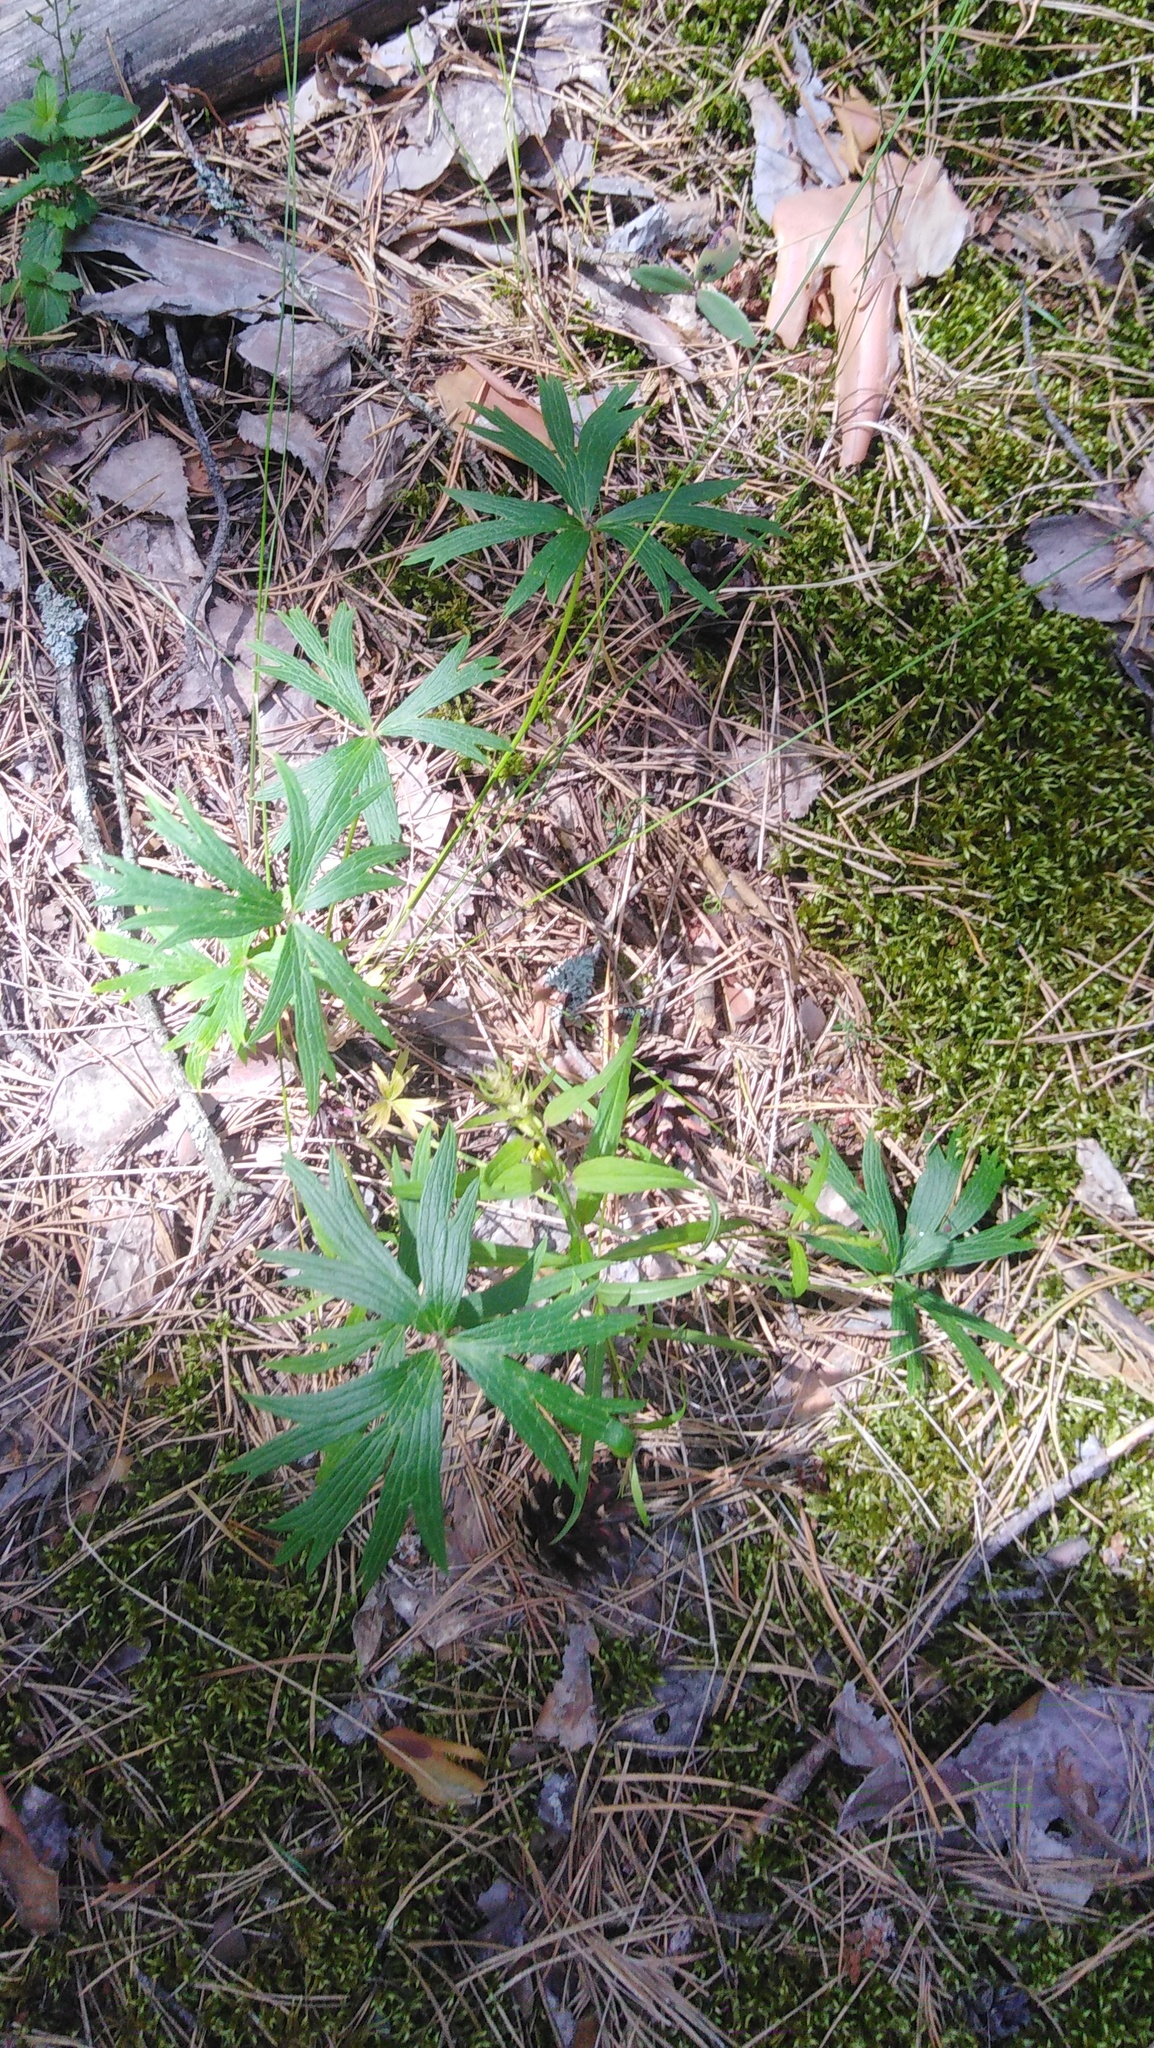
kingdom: Plantae
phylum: Tracheophyta
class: Magnoliopsida
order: Ranunculales
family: Ranunculaceae
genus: Pulsatilla
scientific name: Pulsatilla patens
